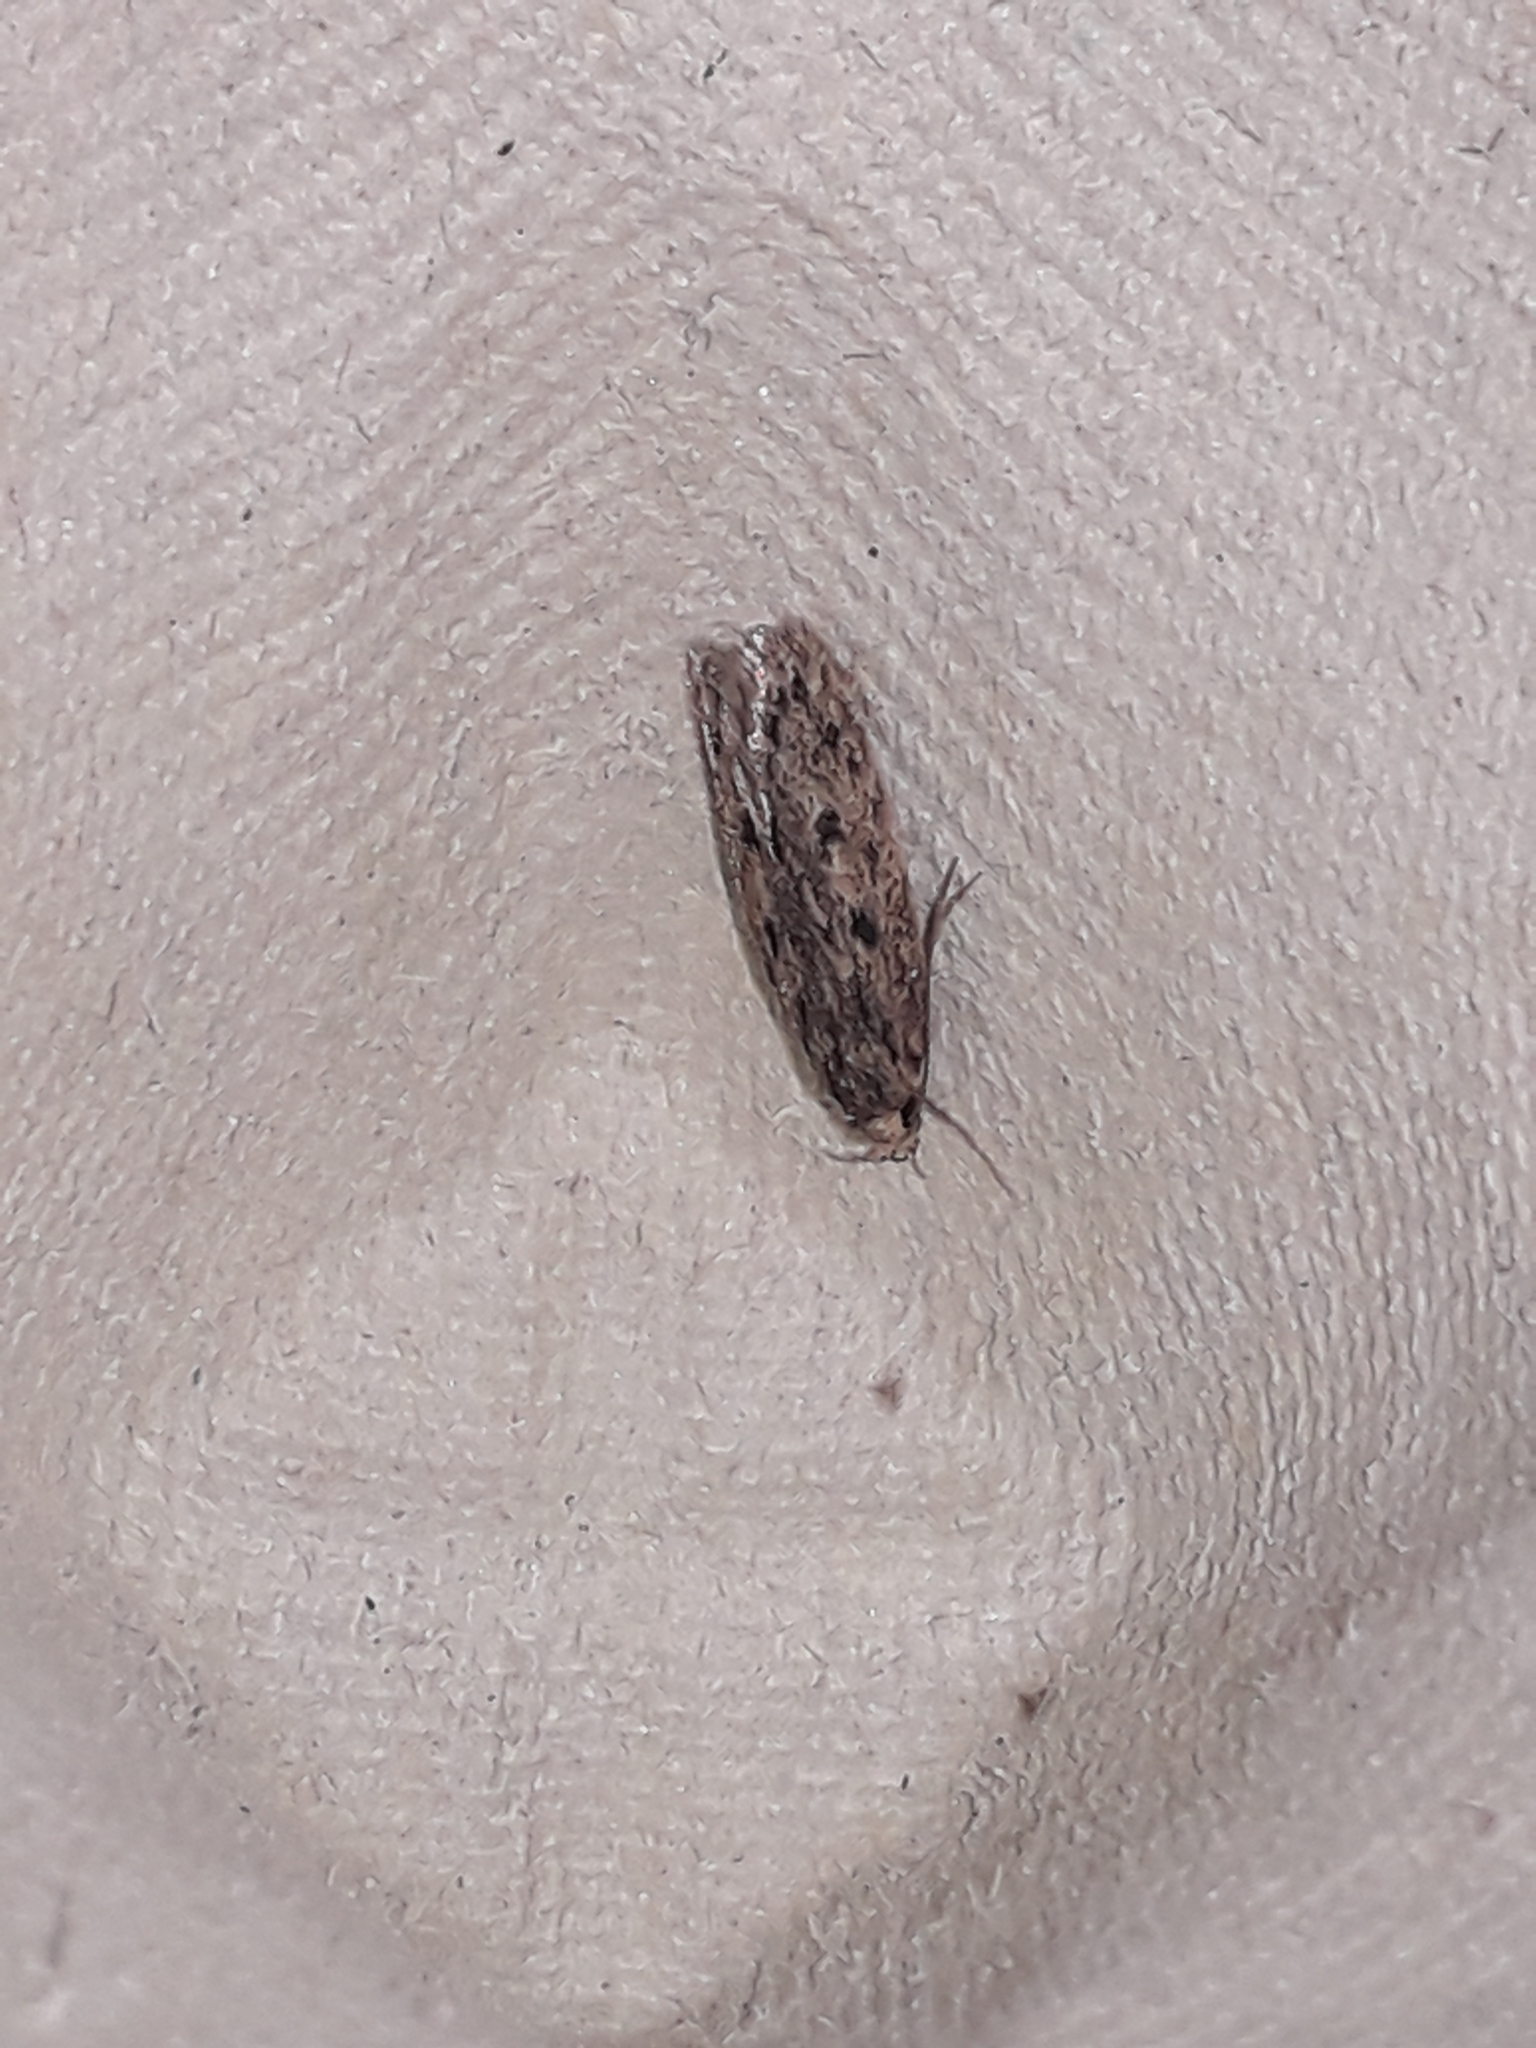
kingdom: Animalia
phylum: Arthropoda
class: Insecta
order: Lepidoptera
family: Oecophoridae
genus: Hofmannophila
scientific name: Hofmannophila pseudospretella
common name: Brown house moth
